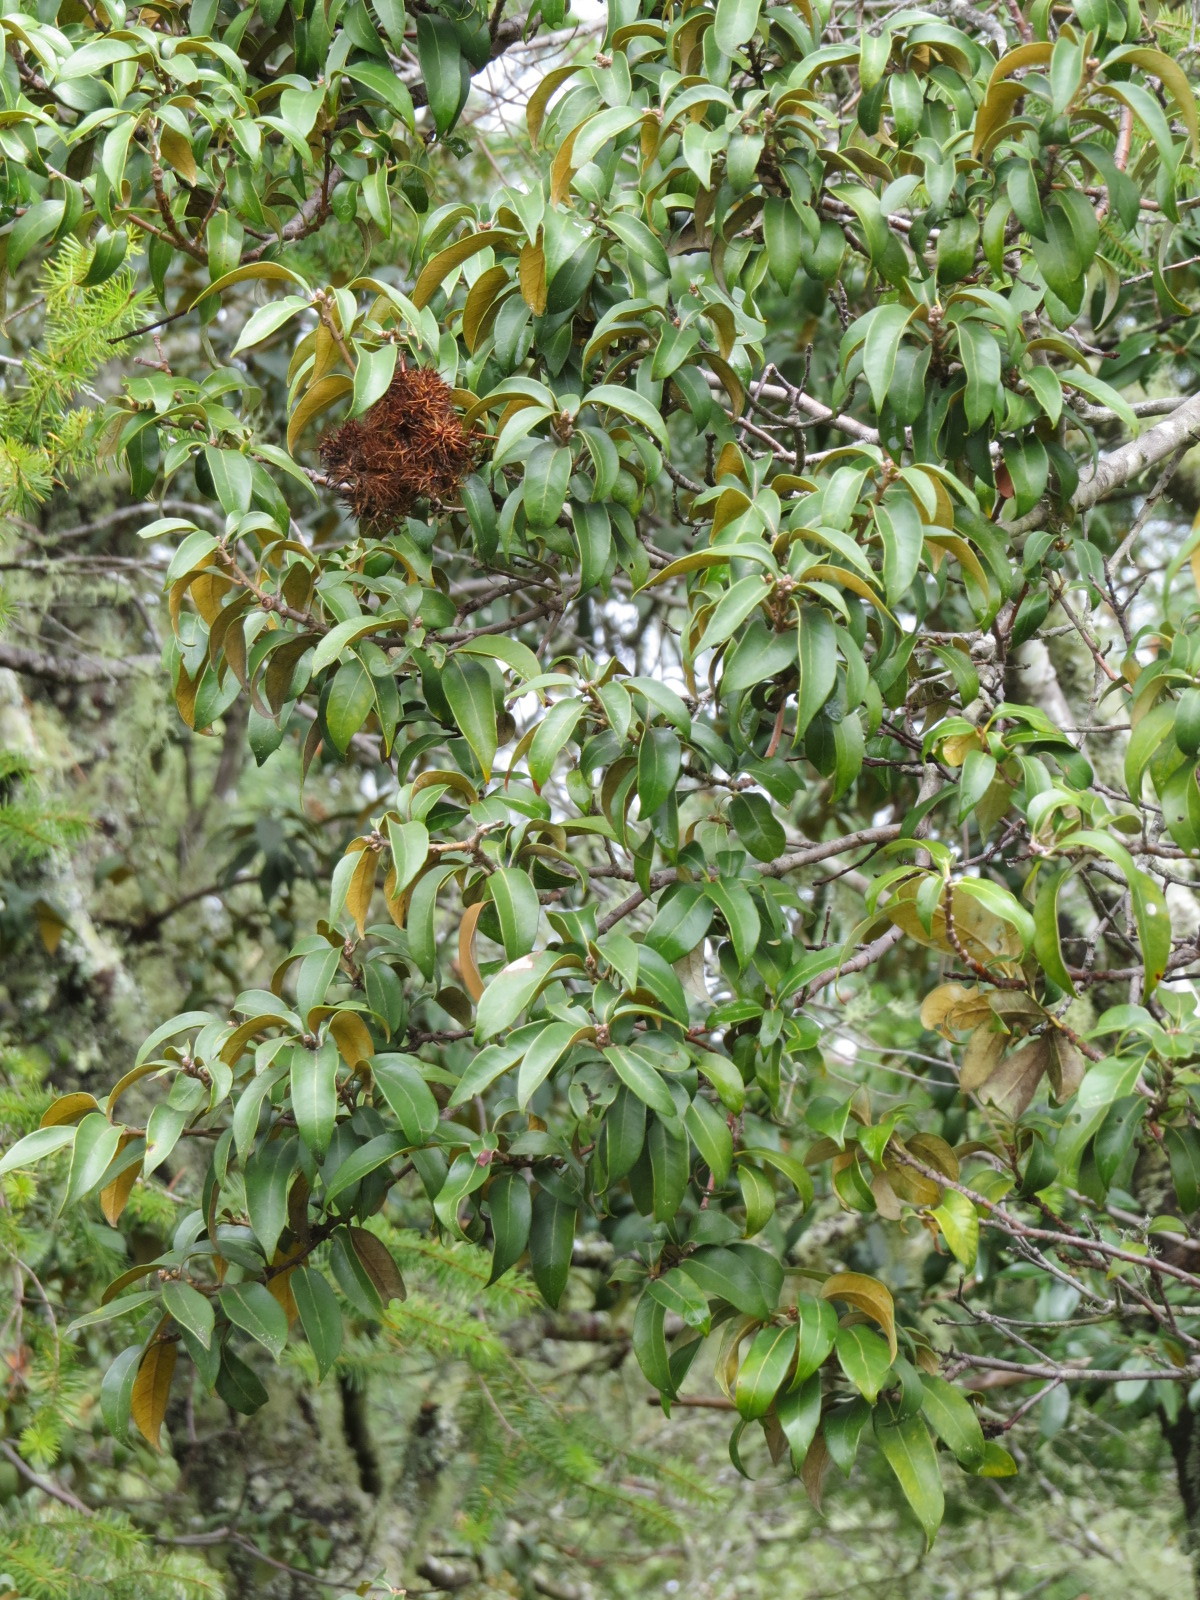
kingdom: Plantae
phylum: Tracheophyta
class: Magnoliopsida
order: Fagales
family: Fagaceae
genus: Chrysolepis
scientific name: Chrysolepis chrysophylla
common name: Giant chinquapin
